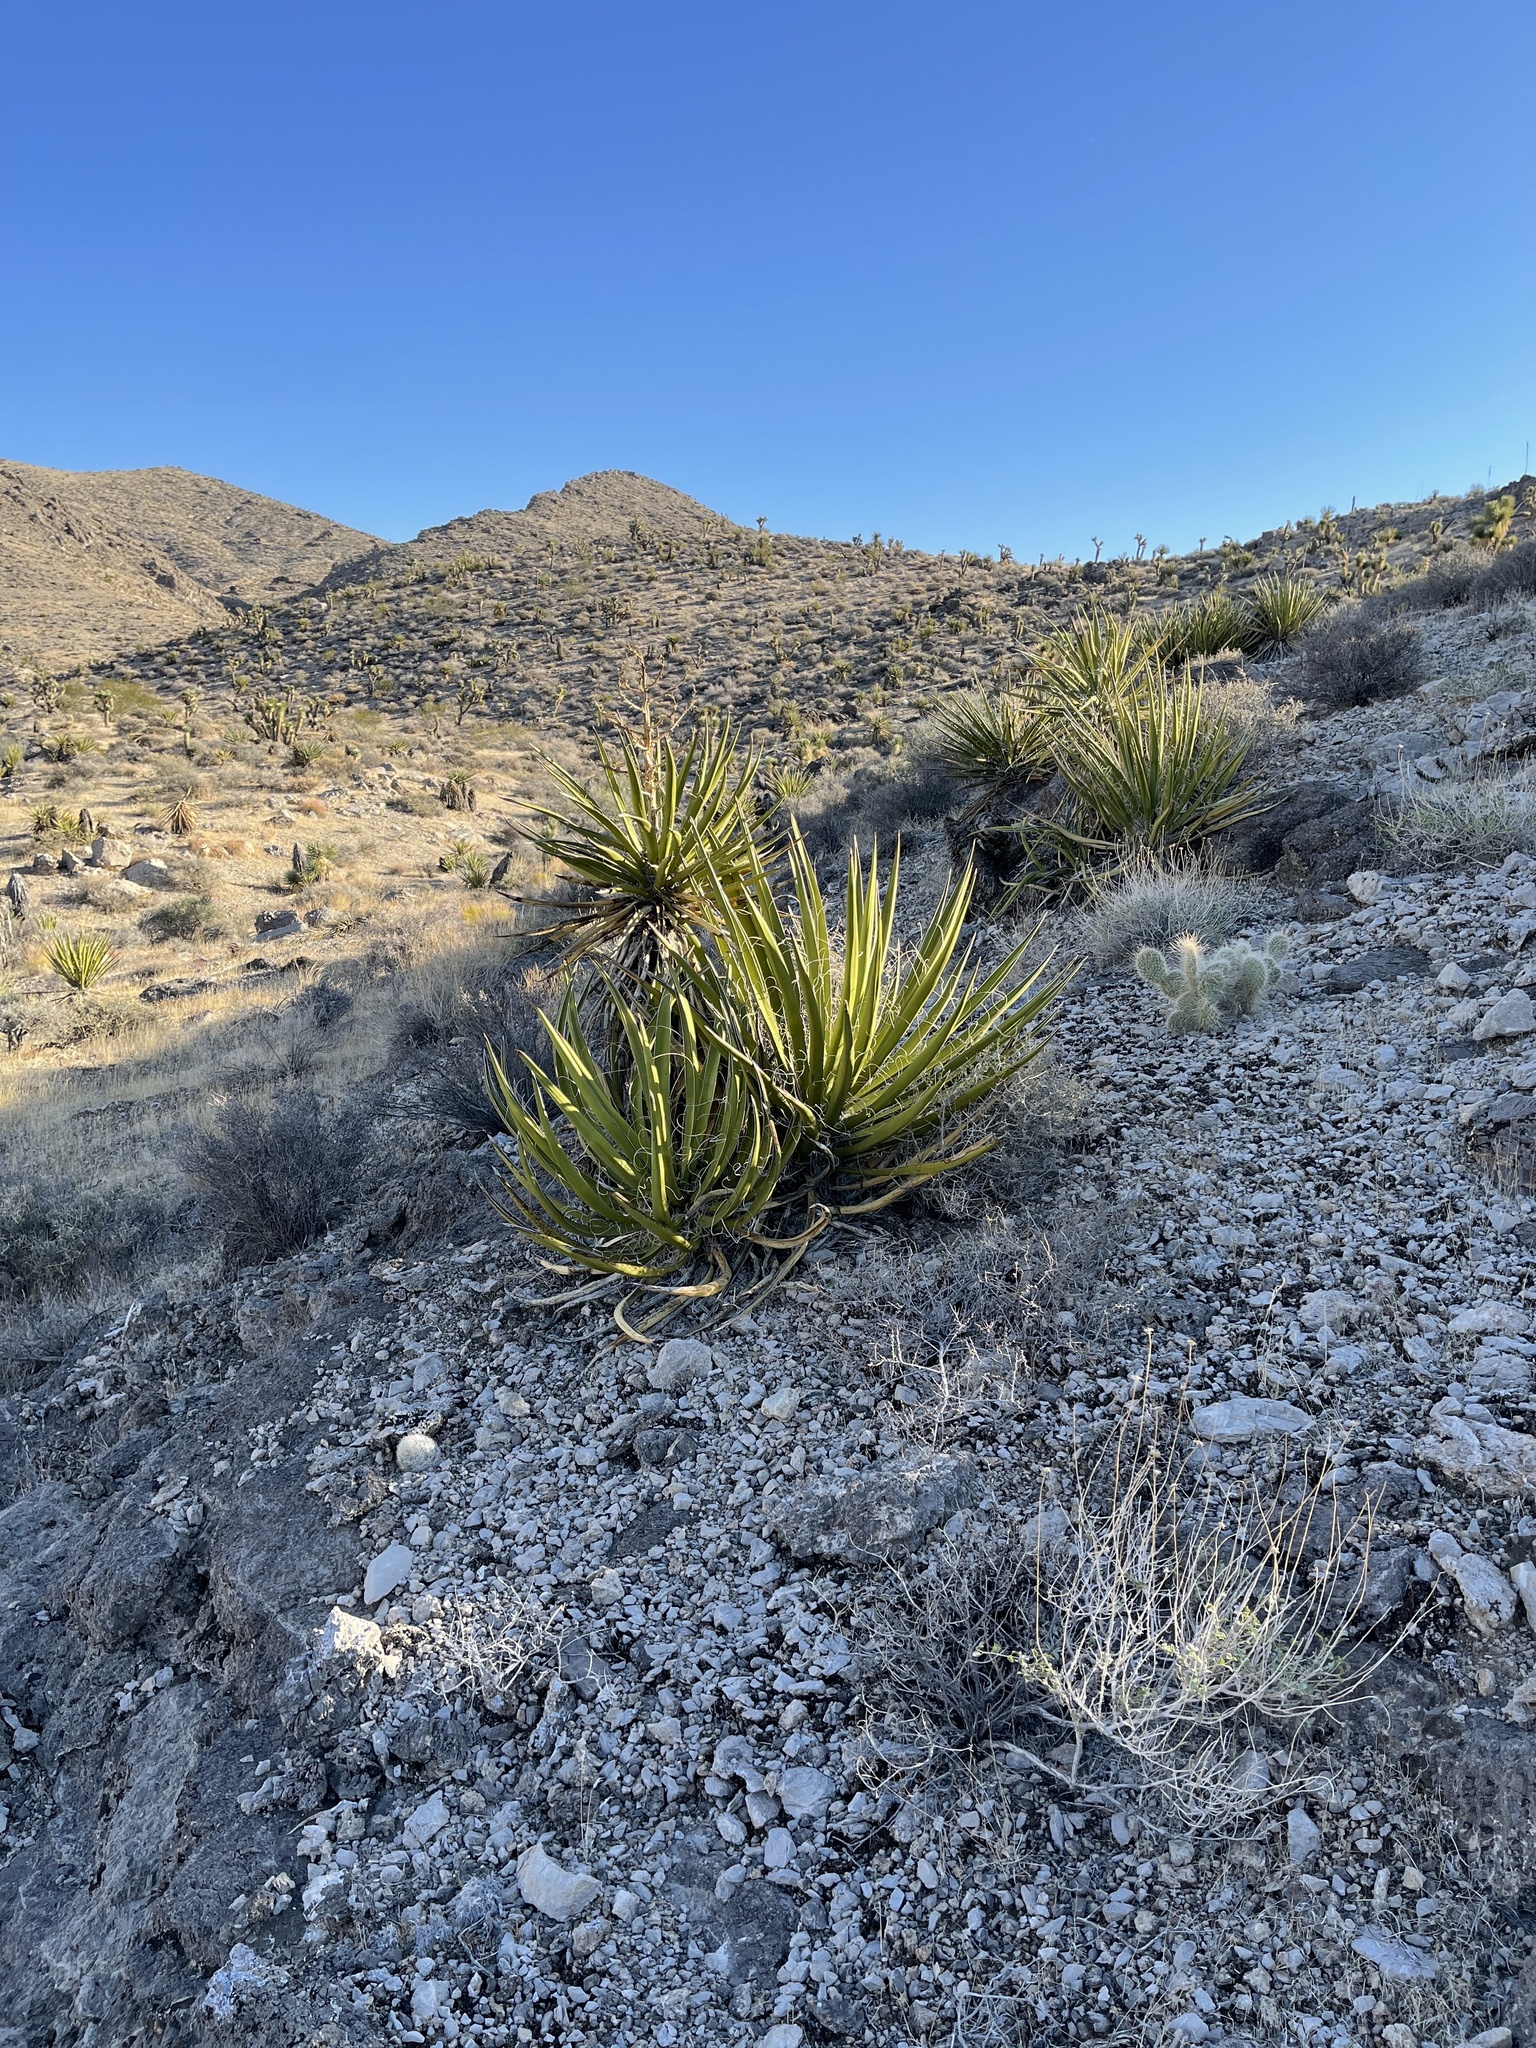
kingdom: Plantae
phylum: Tracheophyta
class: Liliopsida
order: Asparagales
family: Asparagaceae
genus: Yucca
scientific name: Yucca schidigera
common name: Mojave yucca
